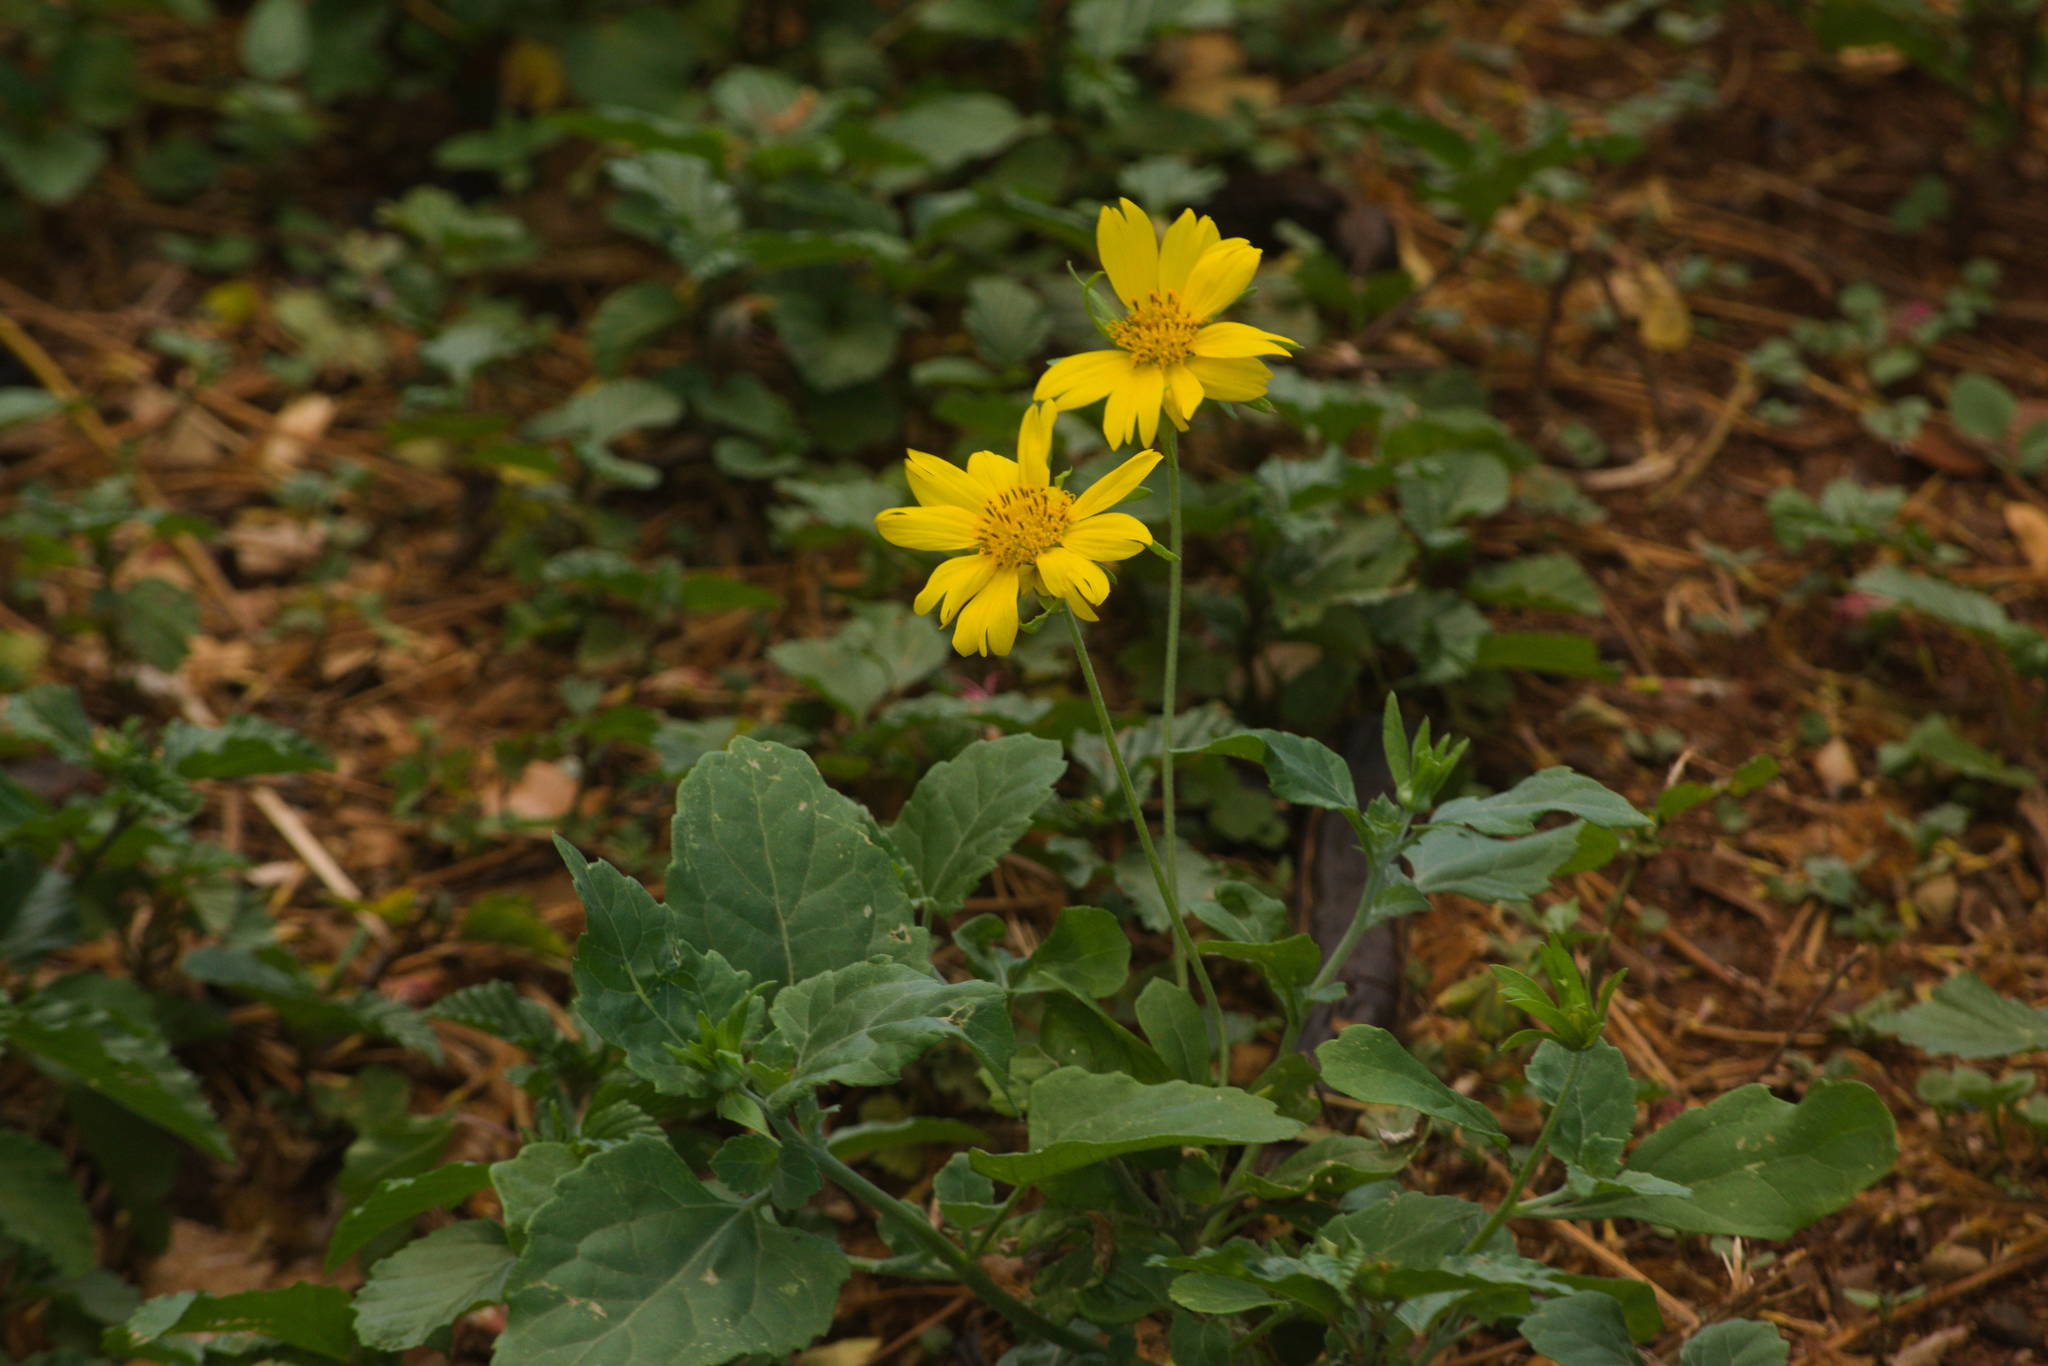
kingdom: Plantae
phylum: Tracheophyta
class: Magnoliopsida
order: Asterales
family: Asteraceae
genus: Verbesina
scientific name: Verbesina encelioides
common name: Golden crownbeard
